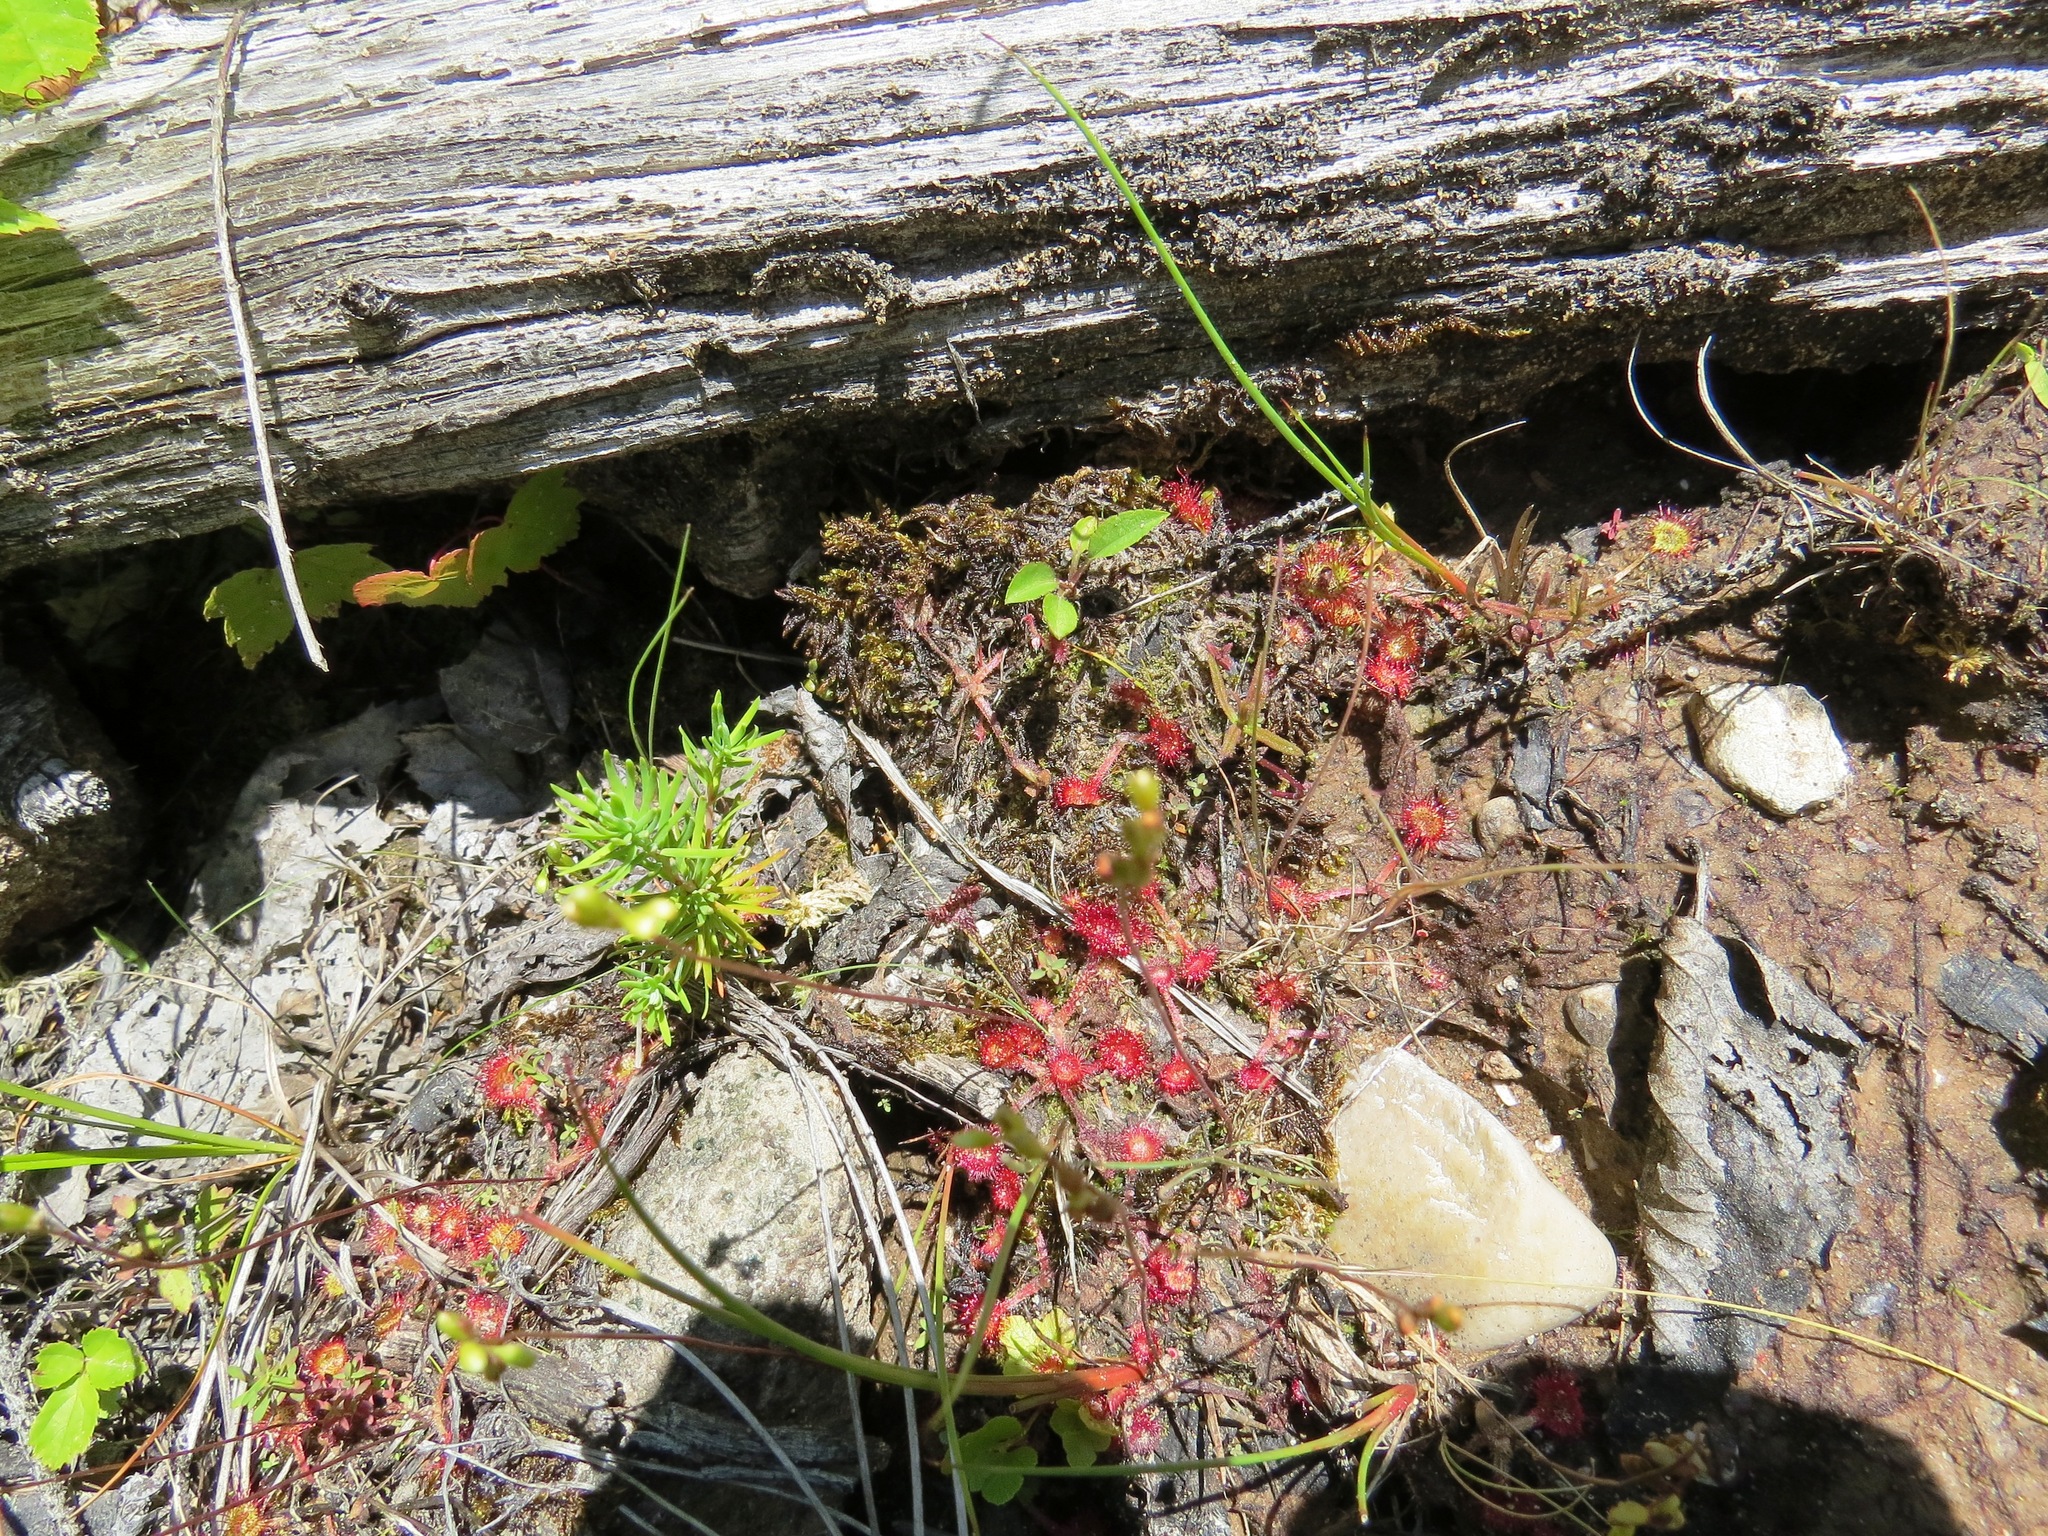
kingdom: Plantae
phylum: Tracheophyta
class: Magnoliopsida
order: Caryophyllales
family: Droseraceae
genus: Drosera
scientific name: Drosera rotundifolia
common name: Round-leaved sundew
